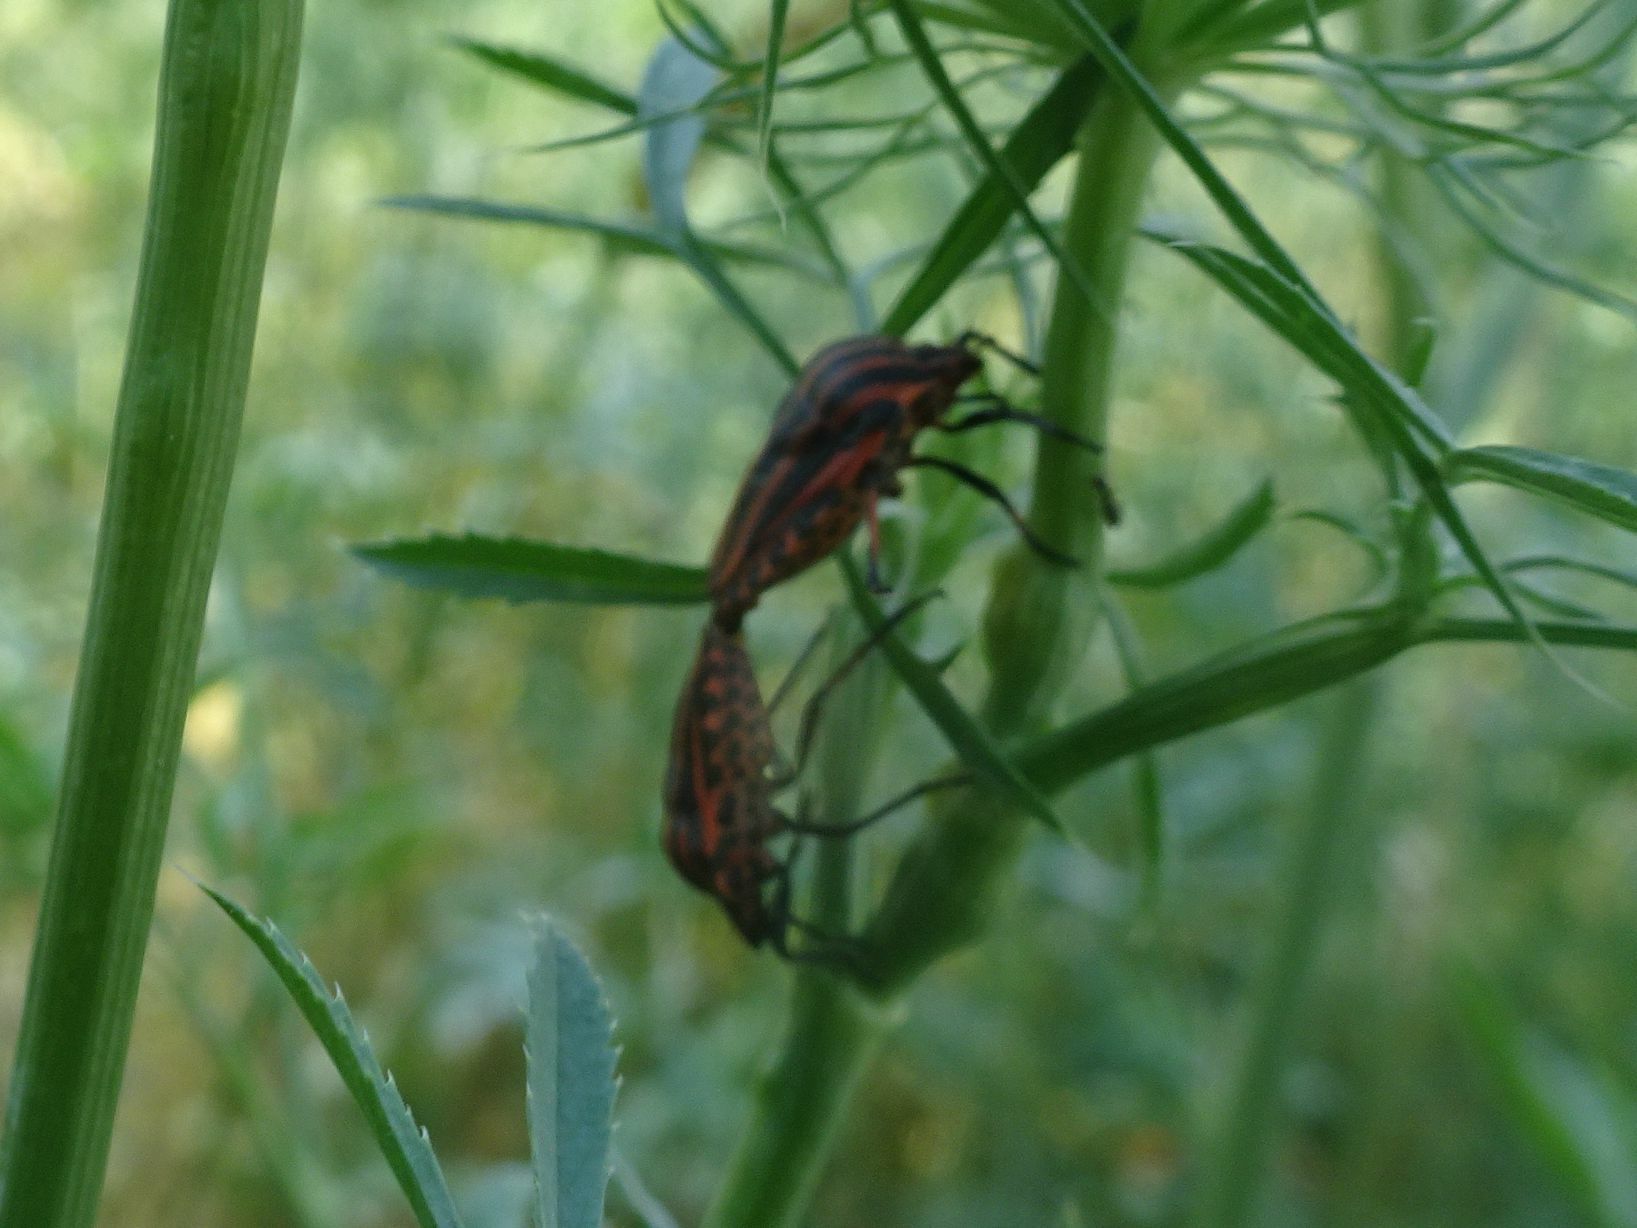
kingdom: Animalia
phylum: Arthropoda
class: Insecta
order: Hemiptera
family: Pentatomidae
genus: Graphosoma
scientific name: Graphosoma italicum
